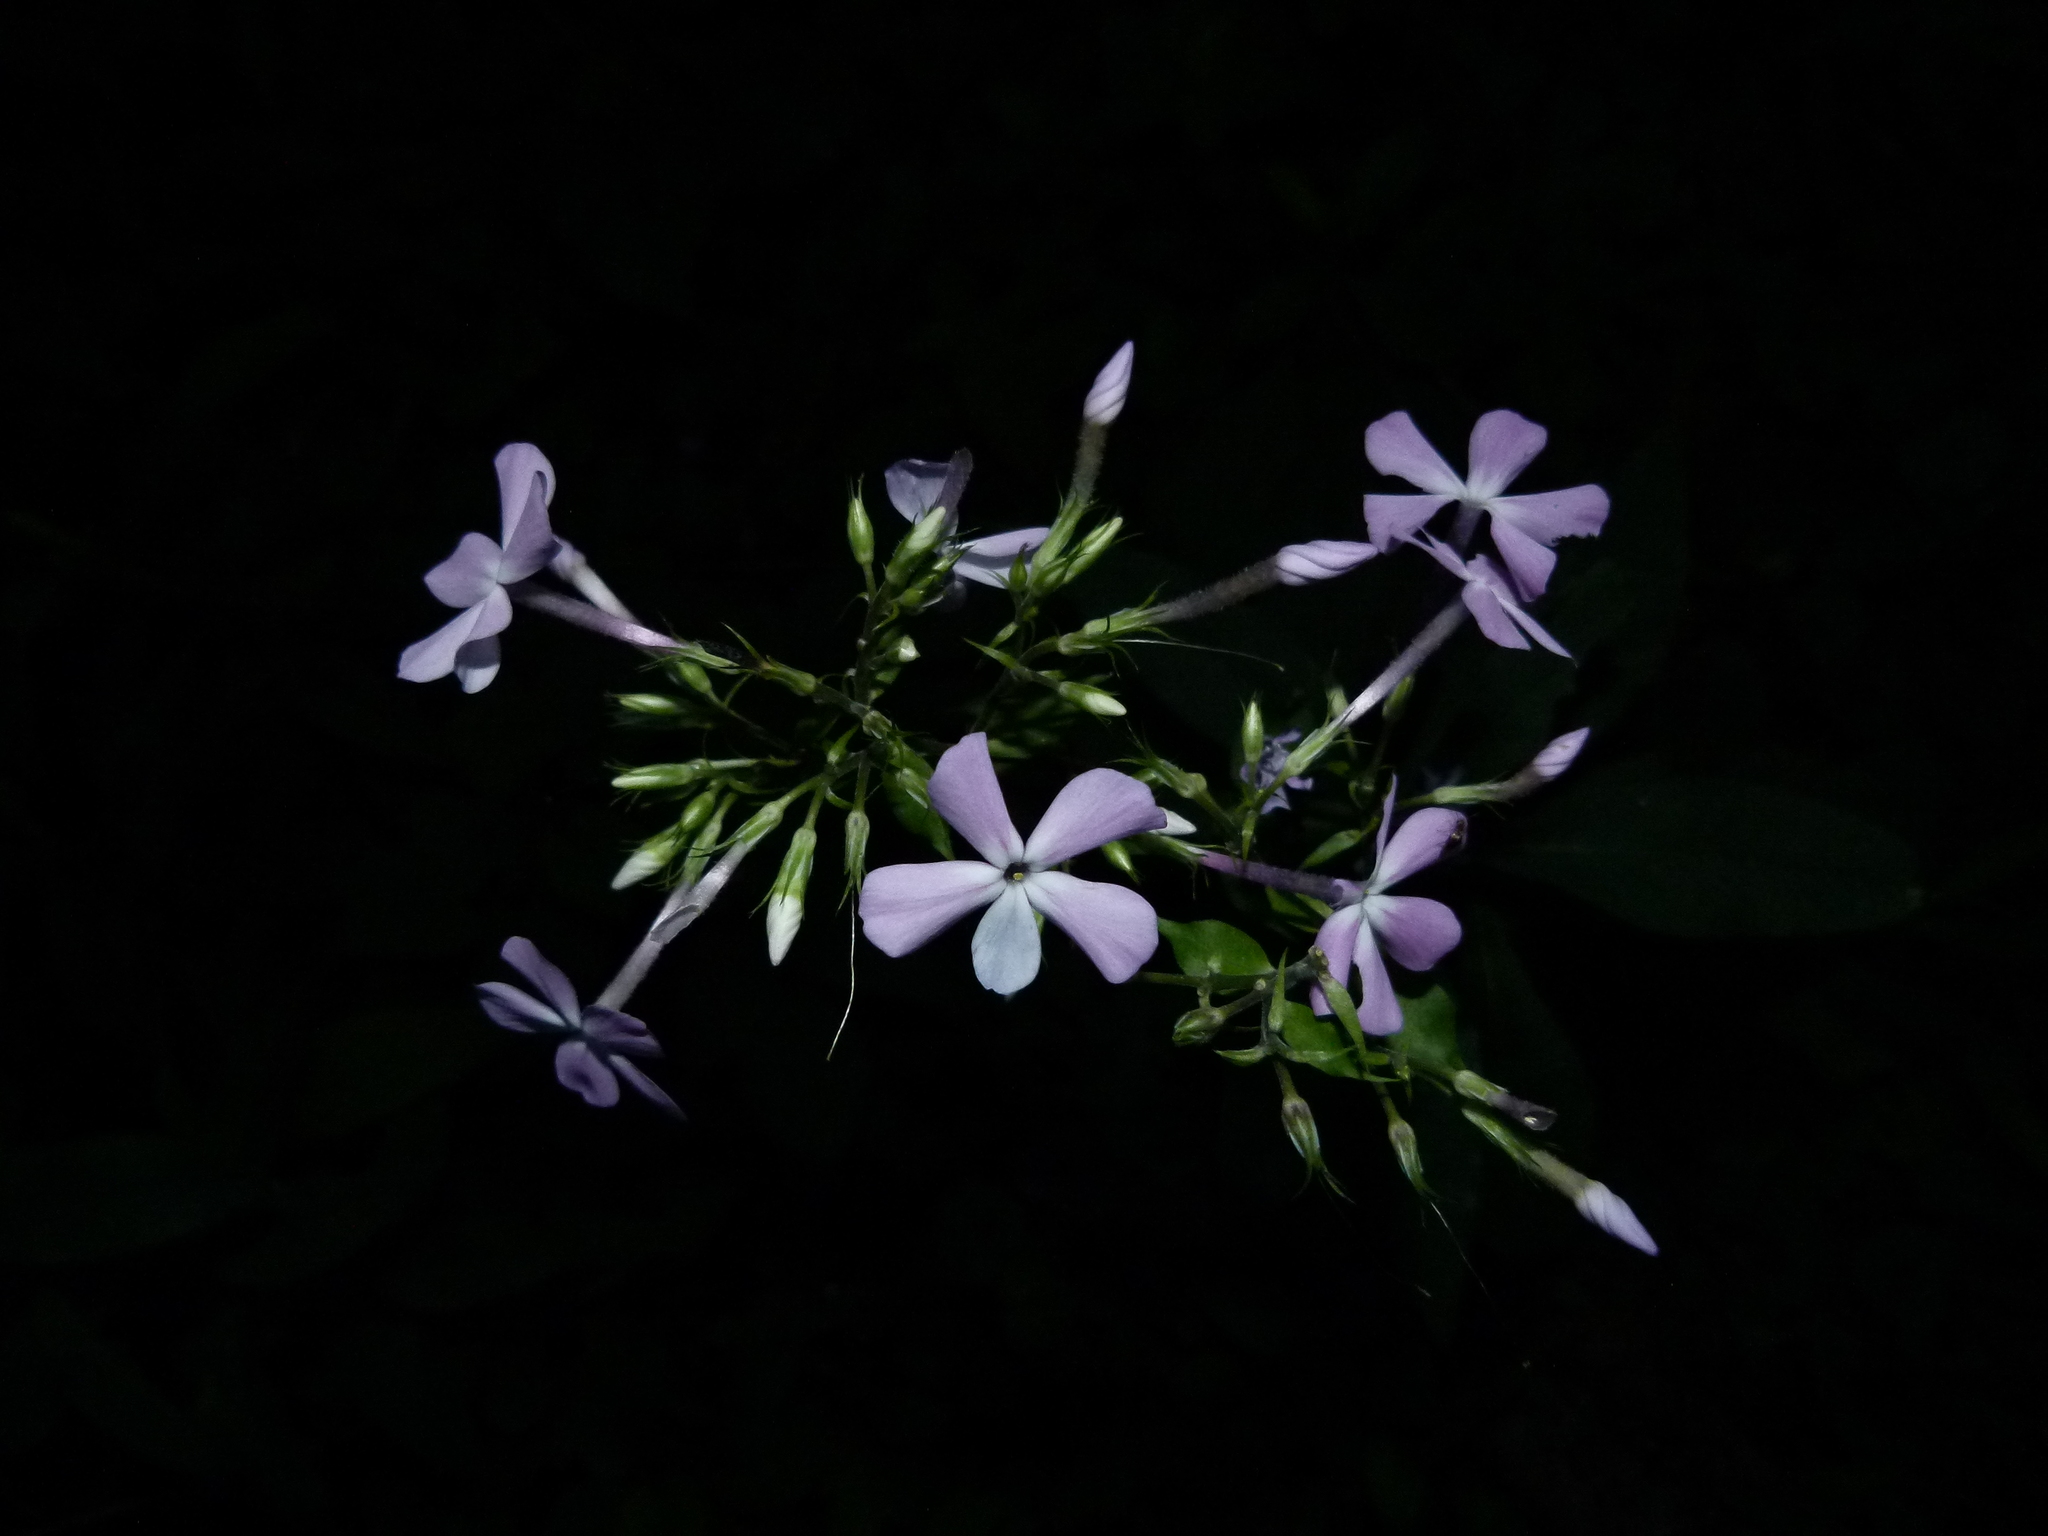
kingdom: Plantae
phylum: Tracheophyta
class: Magnoliopsida
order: Ericales
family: Polemoniaceae
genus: Phlox
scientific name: Phlox paniculata
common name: Fall phlox
